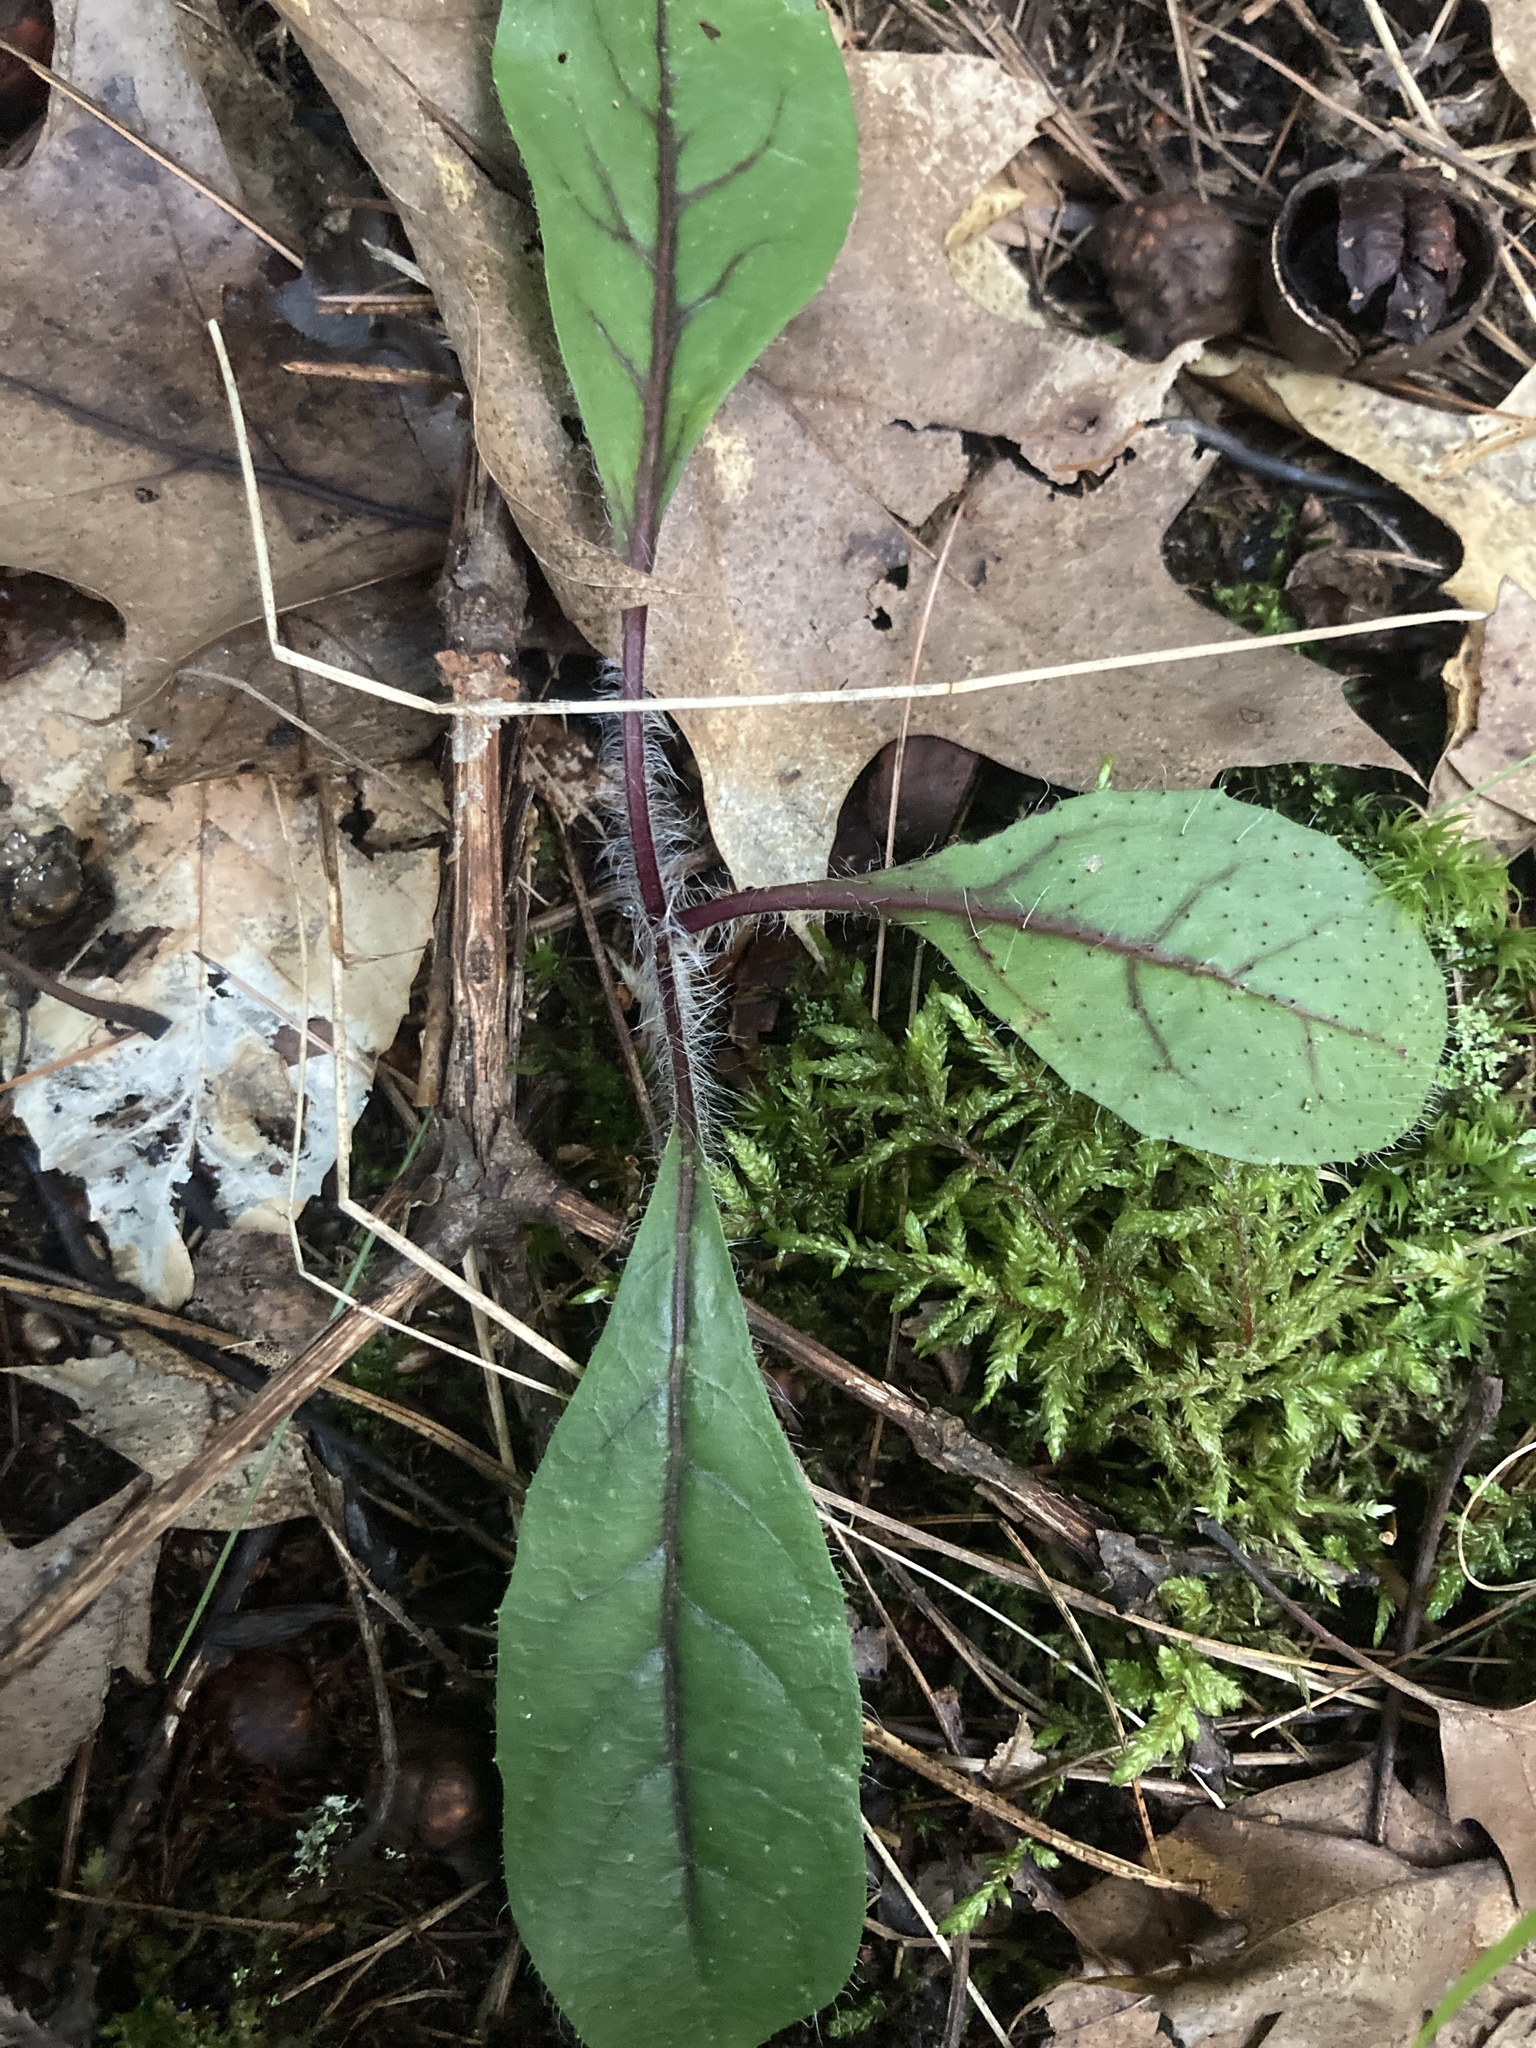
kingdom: Plantae
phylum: Tracheophyta
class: Magnoliopsida
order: Asterales
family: Asteraceae
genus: Hieracium
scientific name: Hieracium venosum
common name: Rattlesnake hawkweed
